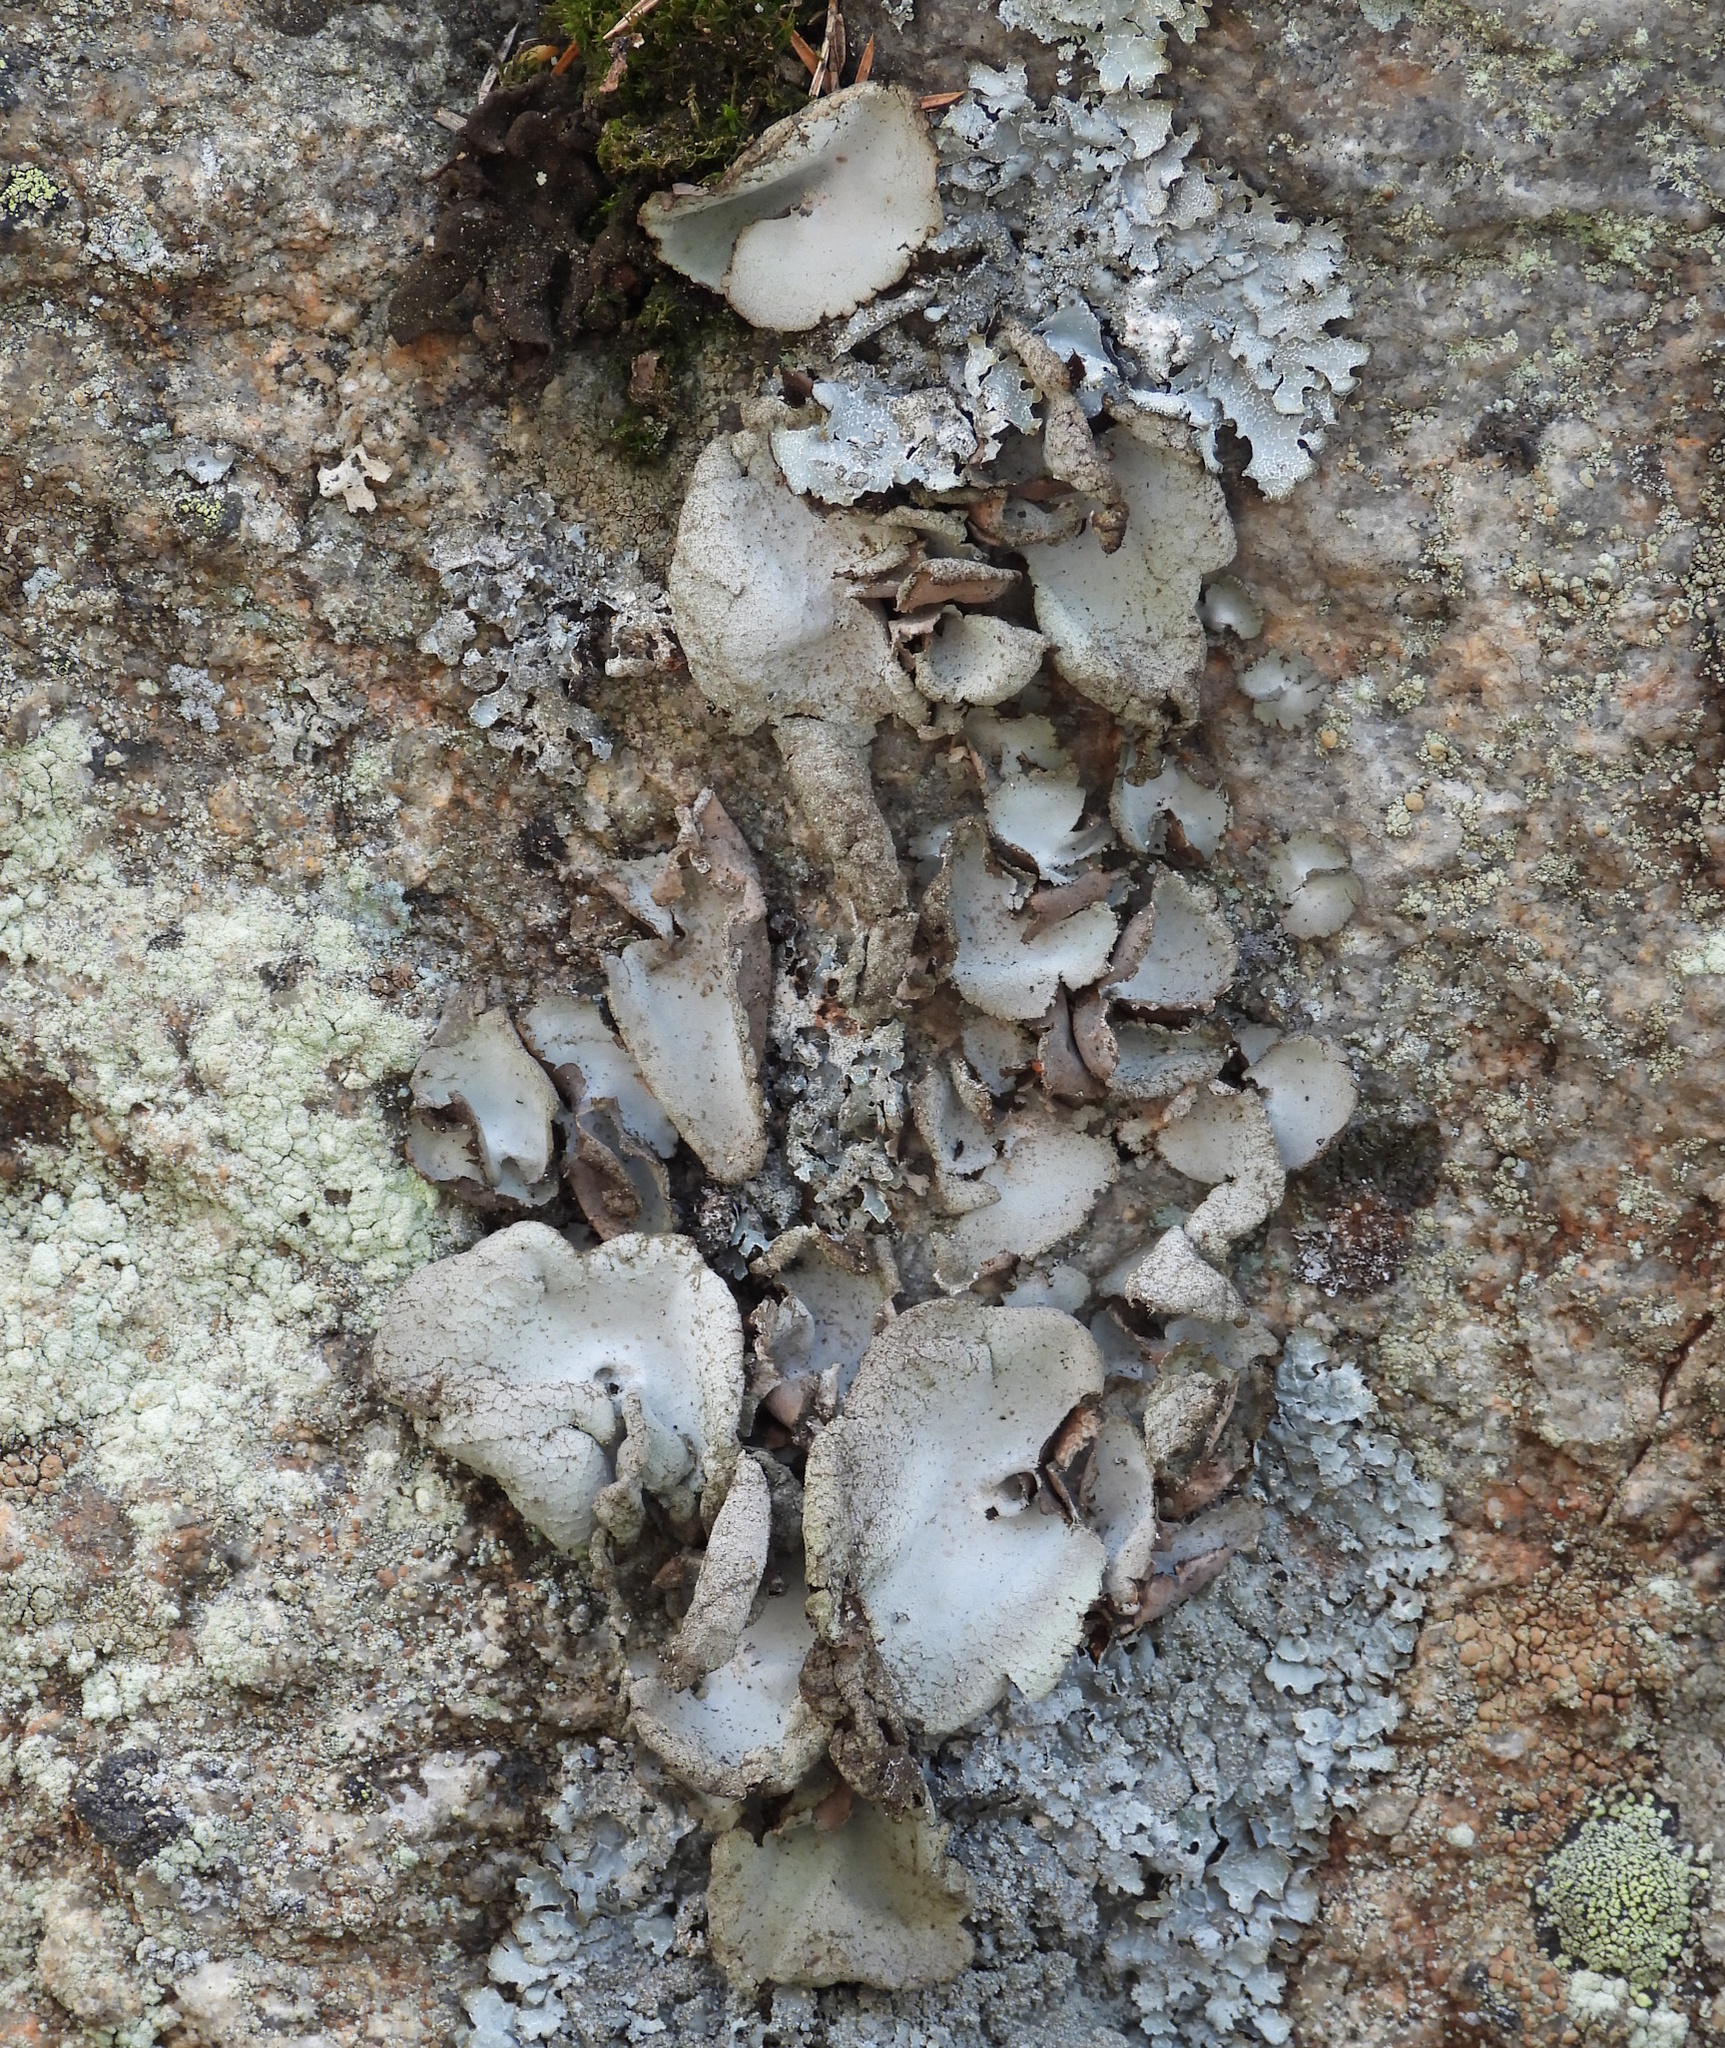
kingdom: Fungi
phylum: Ascomycota
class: Lecanoromycetes
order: Umbilicariales
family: Umbilicariaceae
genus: Umbilicaria
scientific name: Umbilicaria hirsuta
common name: Granulating rocktripe lichen
